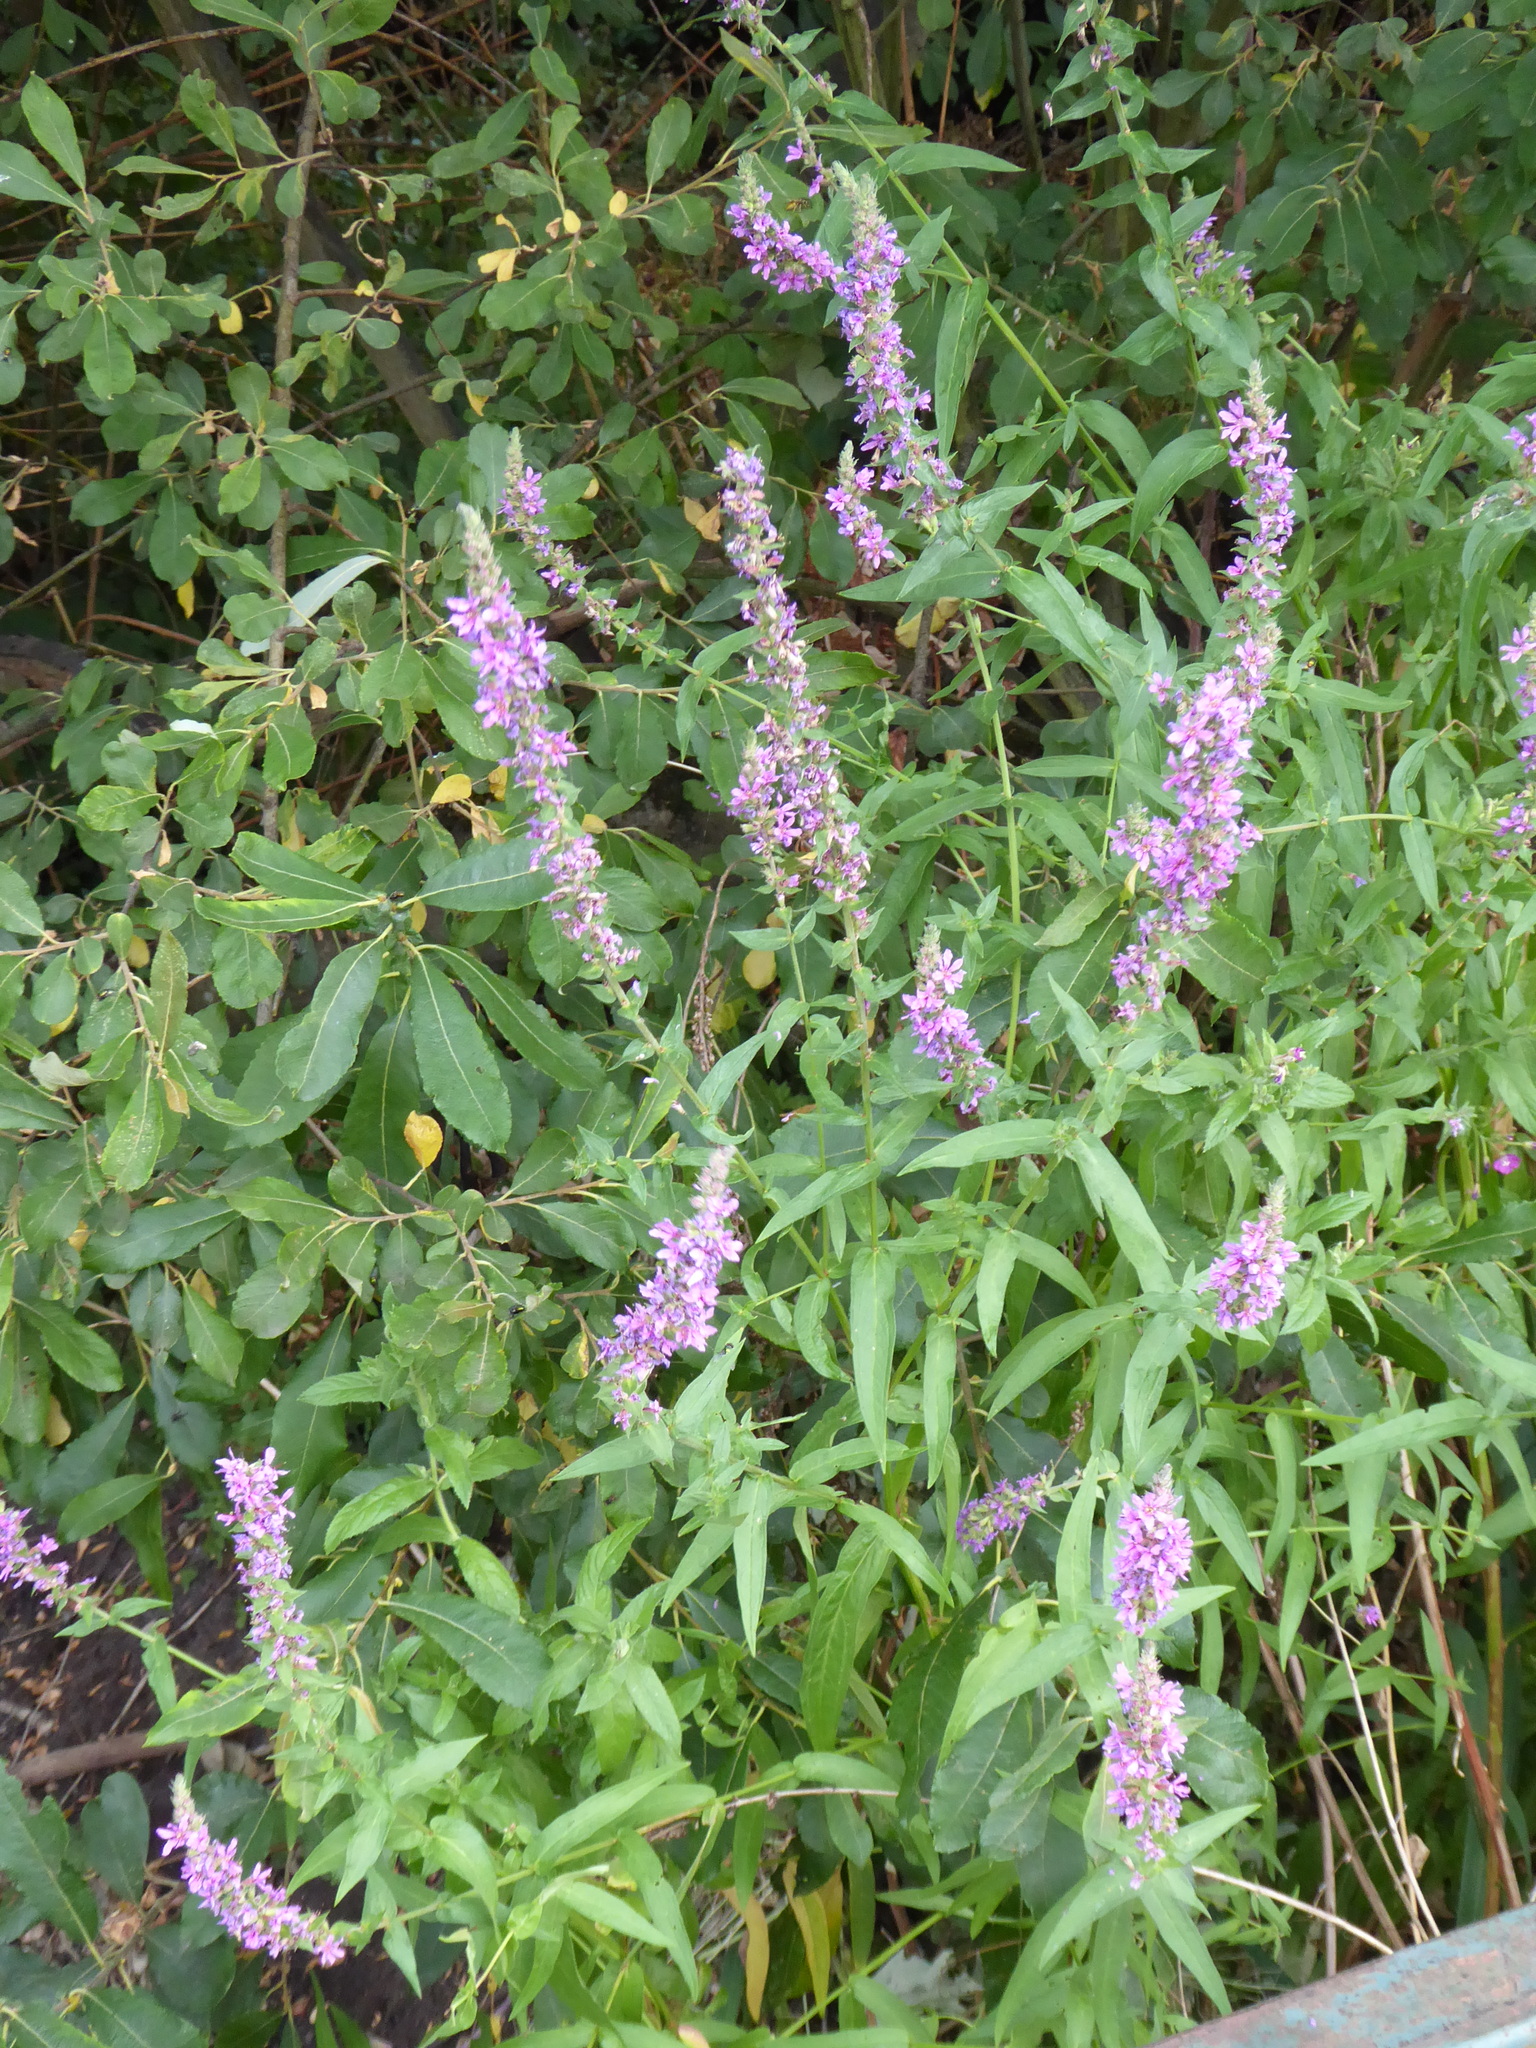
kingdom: Plantae
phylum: Tracheophyta
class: Magnoliopsida
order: Myrtales
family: Lythraceae
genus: Lythrum
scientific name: Lythrum salicaria
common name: Purple loosestrife
